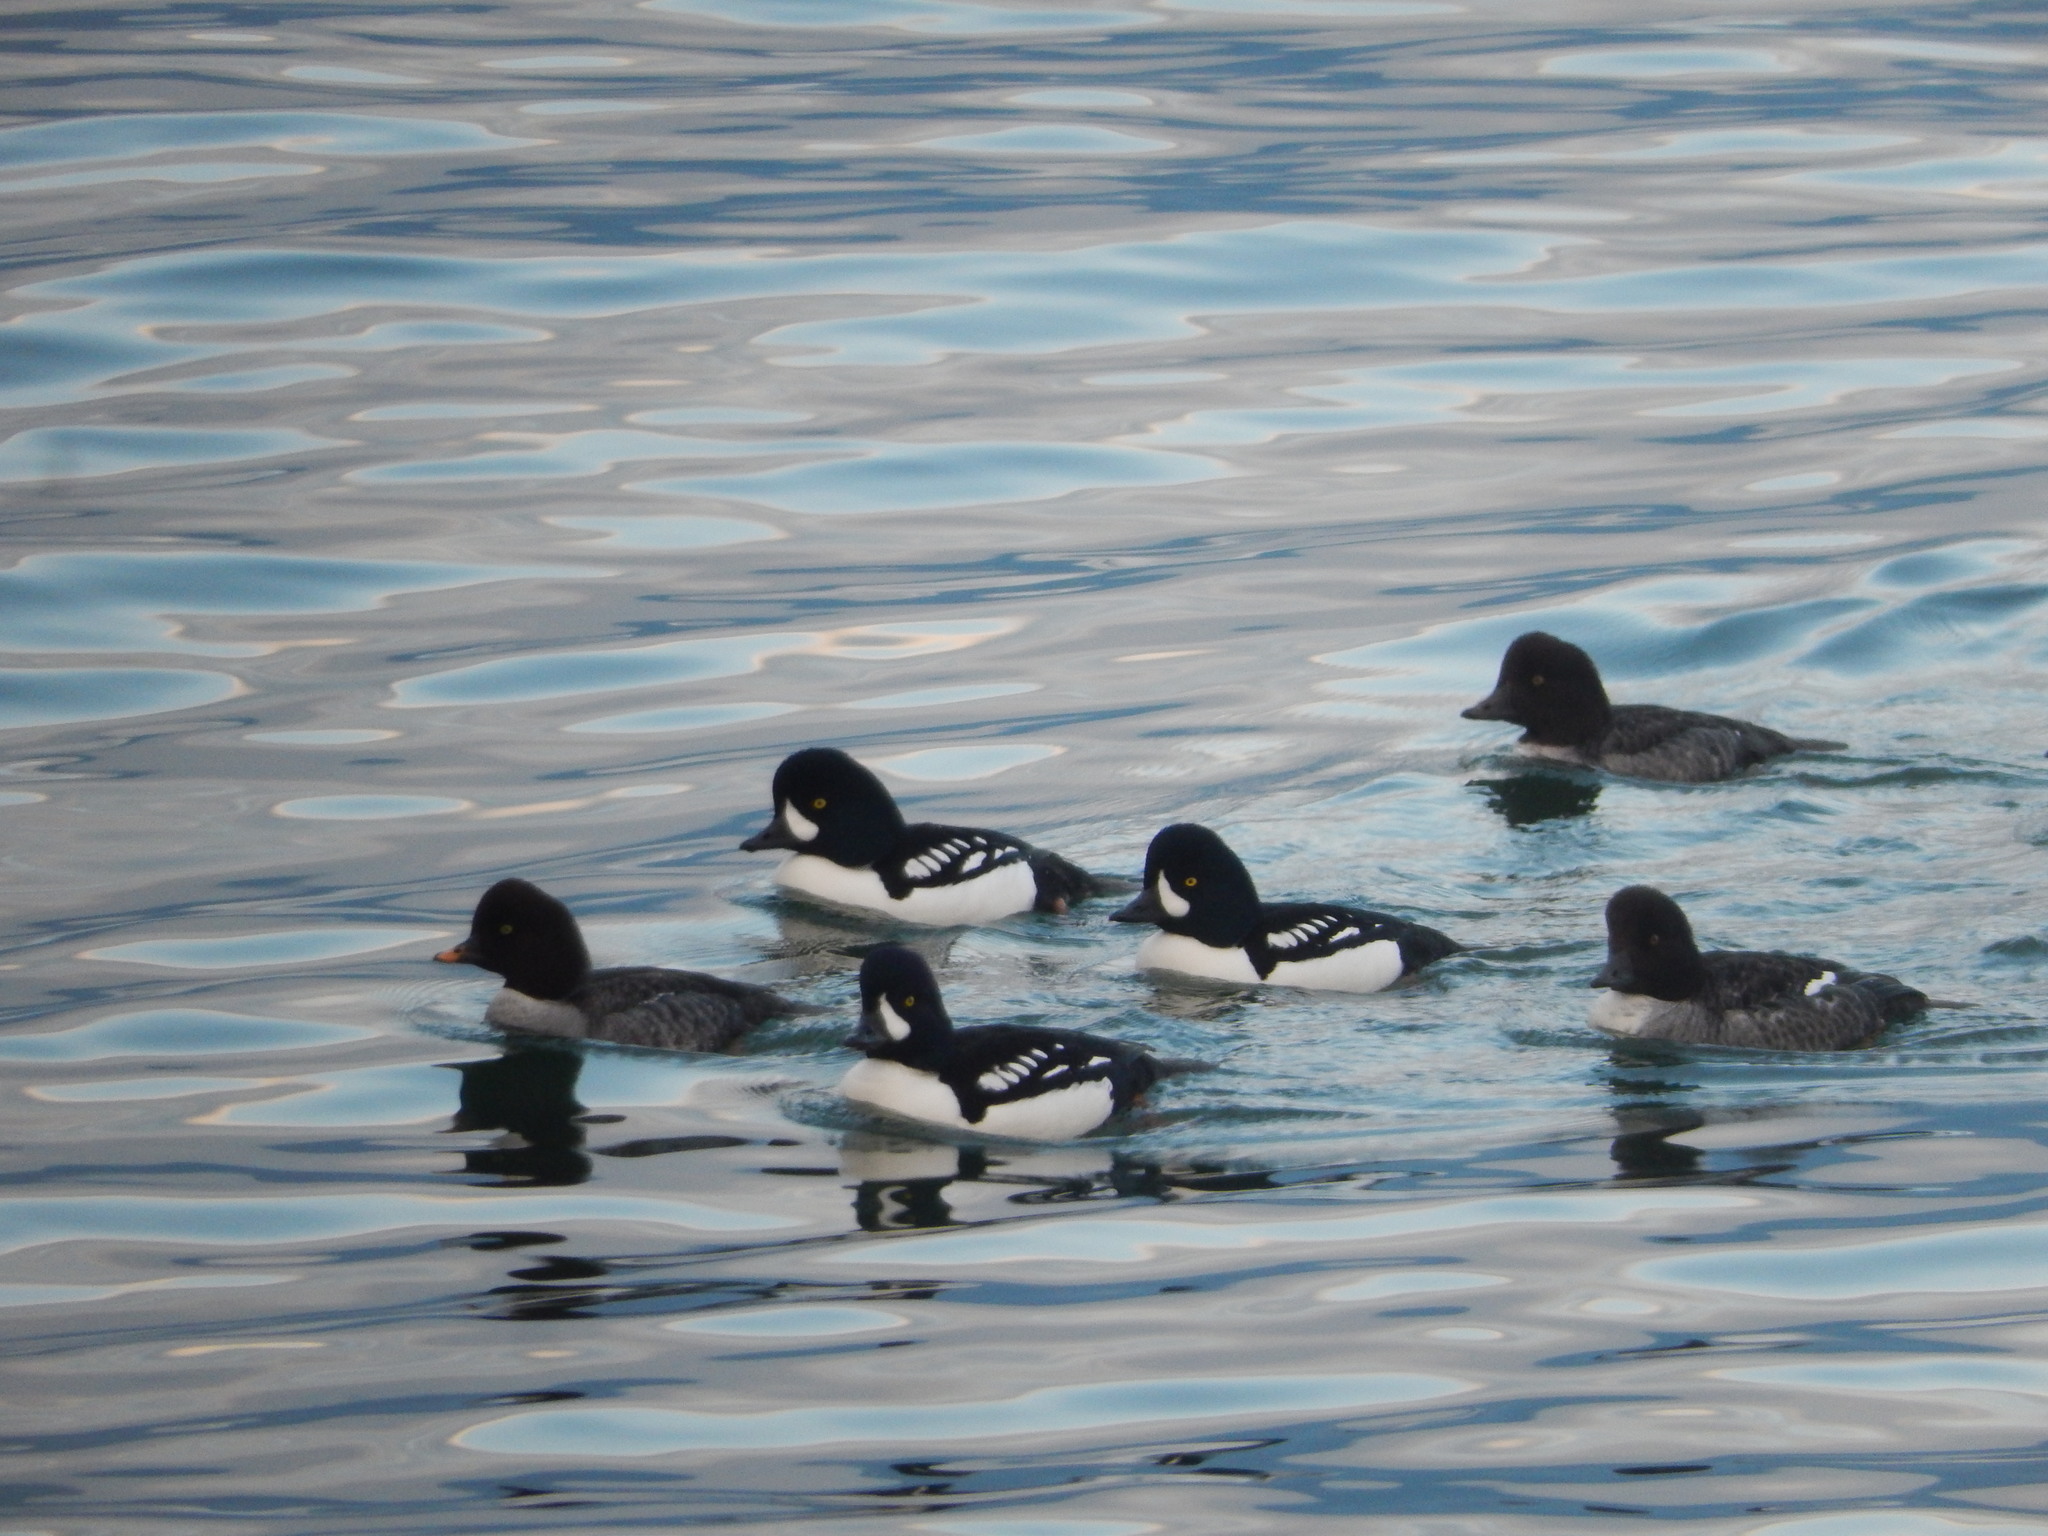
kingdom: Animalia
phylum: Chordata
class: Aves
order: Anseriformes
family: Anatidae
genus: Bucephala
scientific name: Bucephala islandica
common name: Barrow's goldeneye
